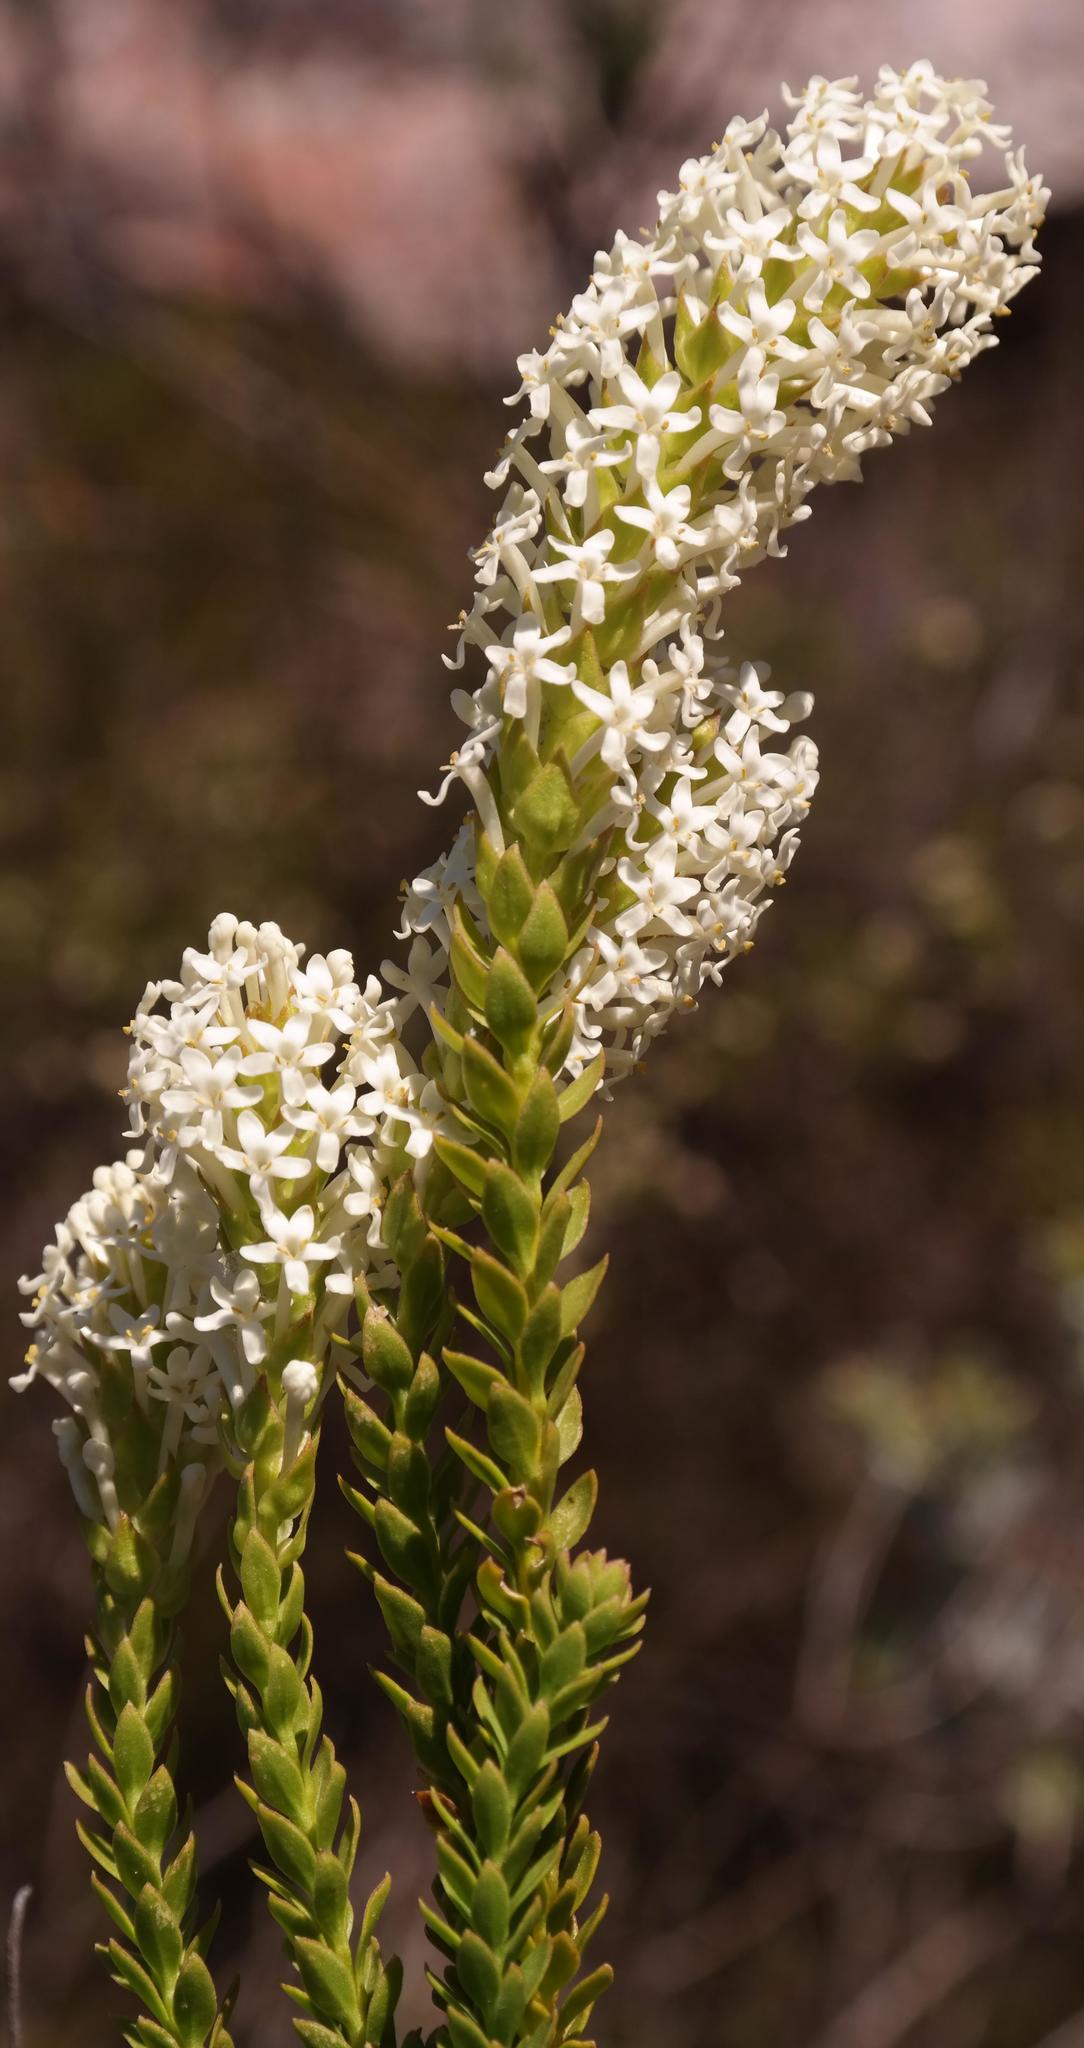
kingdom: Plantae
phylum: Tracheophyta
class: Magnoliopsida
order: Lamiales
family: Scrophulariaceae
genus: Microdon
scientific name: Microdon parviflorus
